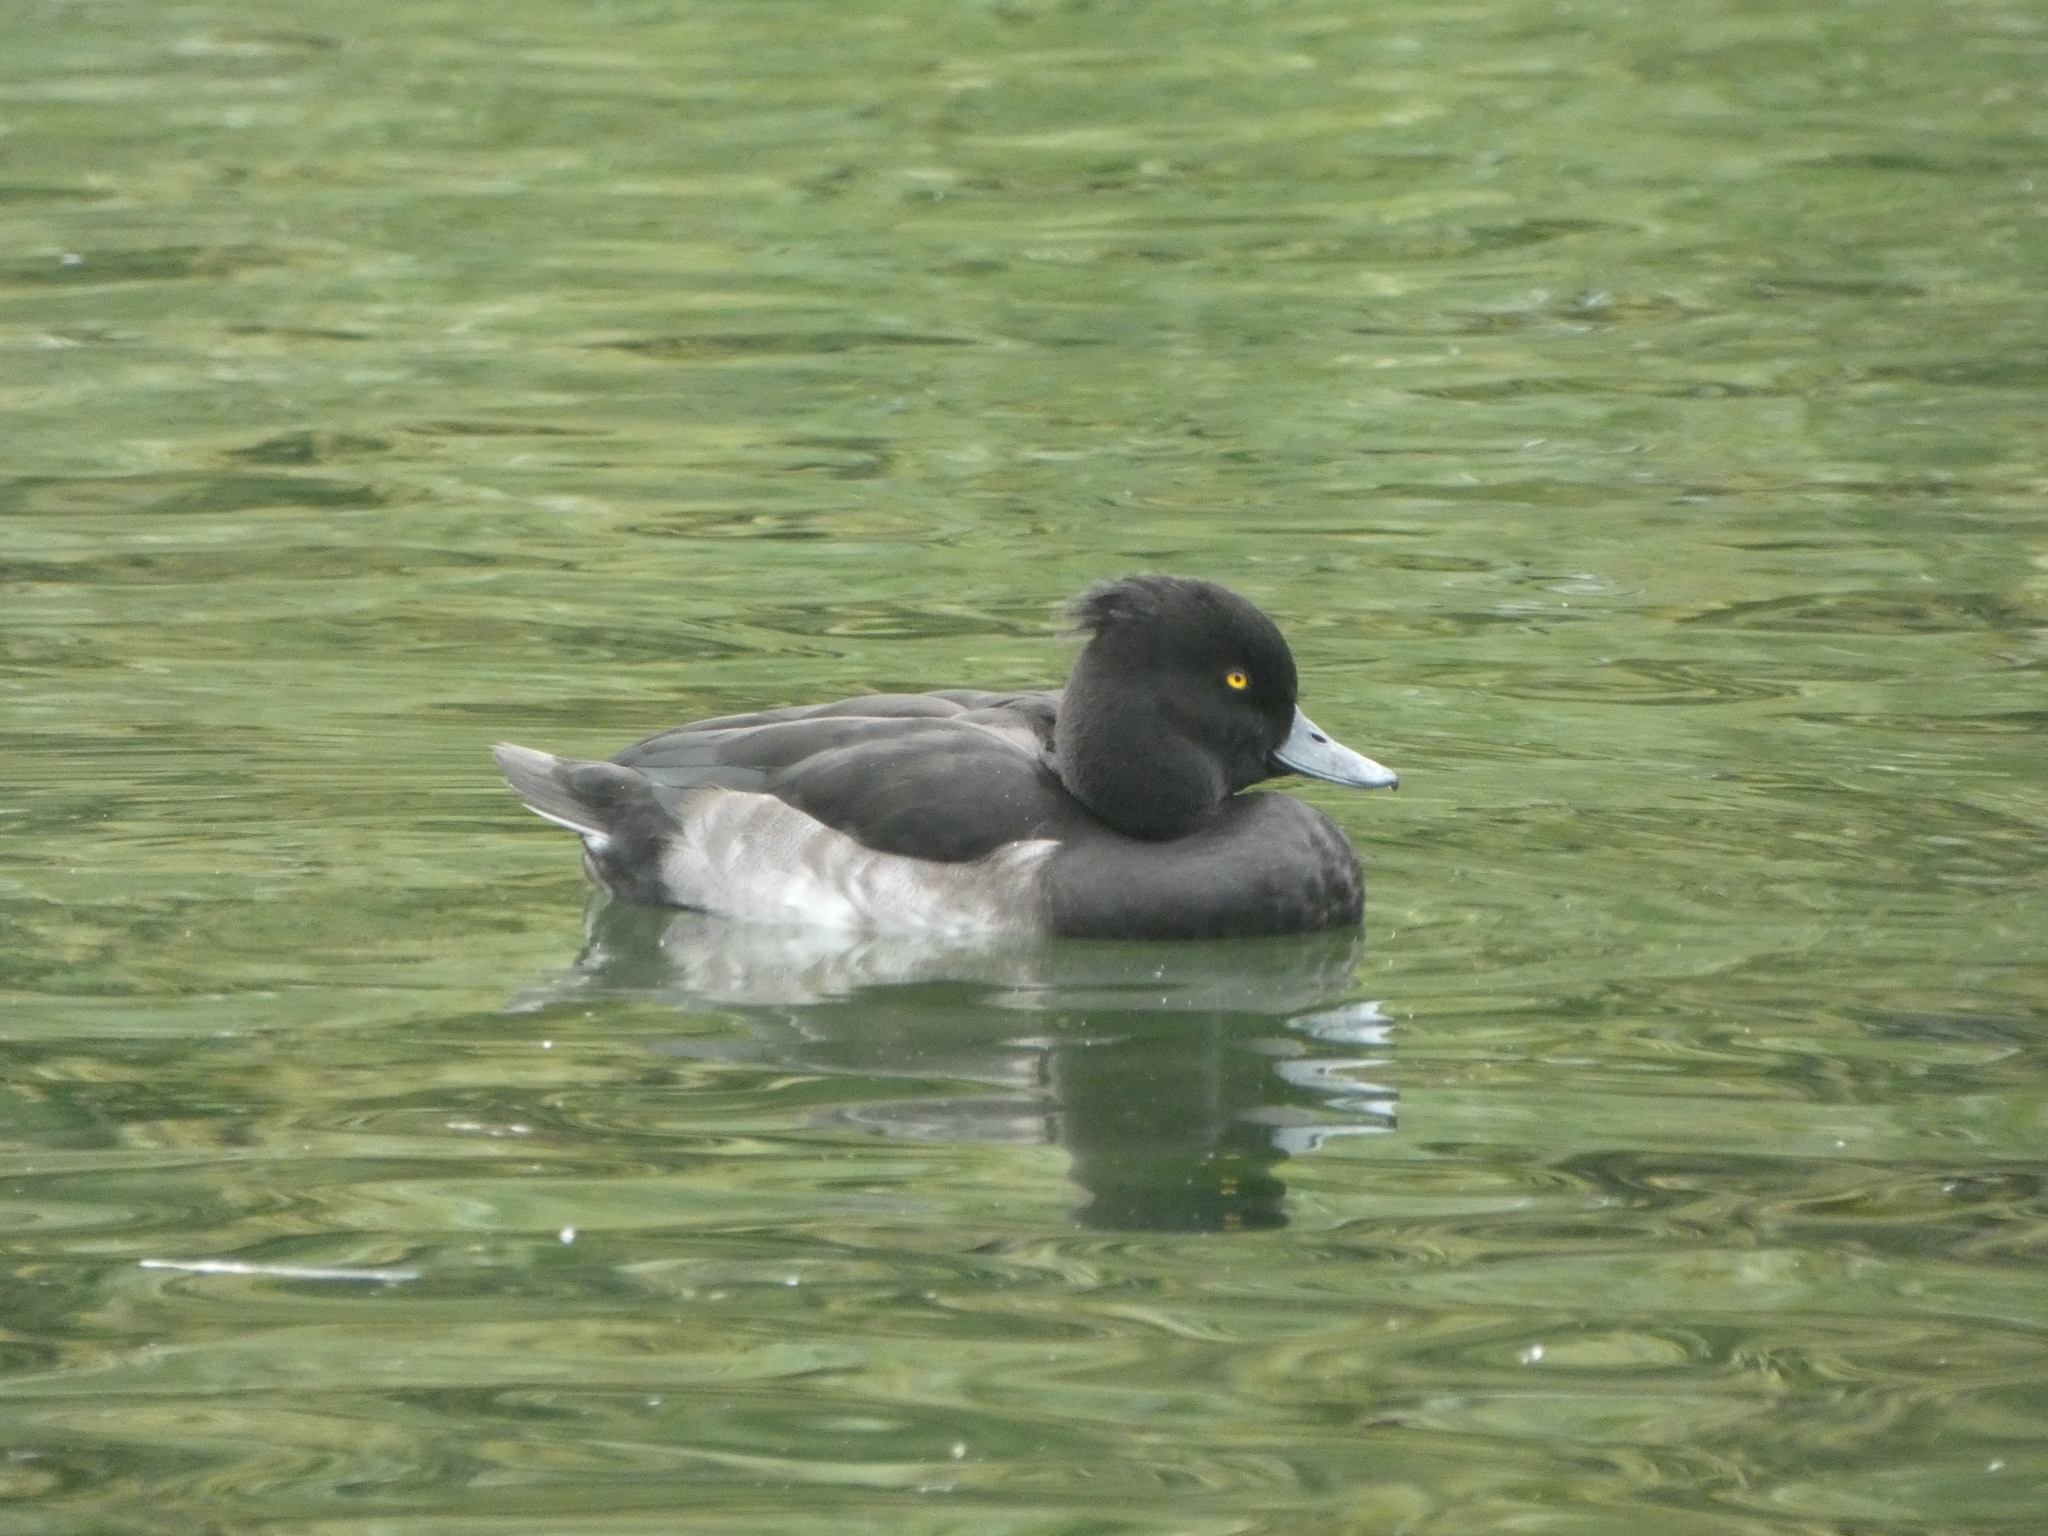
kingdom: Animalia
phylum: Chordata
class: Aves
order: Anseriformes
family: Anatidae
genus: Aythya
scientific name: Aythya fuligula
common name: Tufted duck
